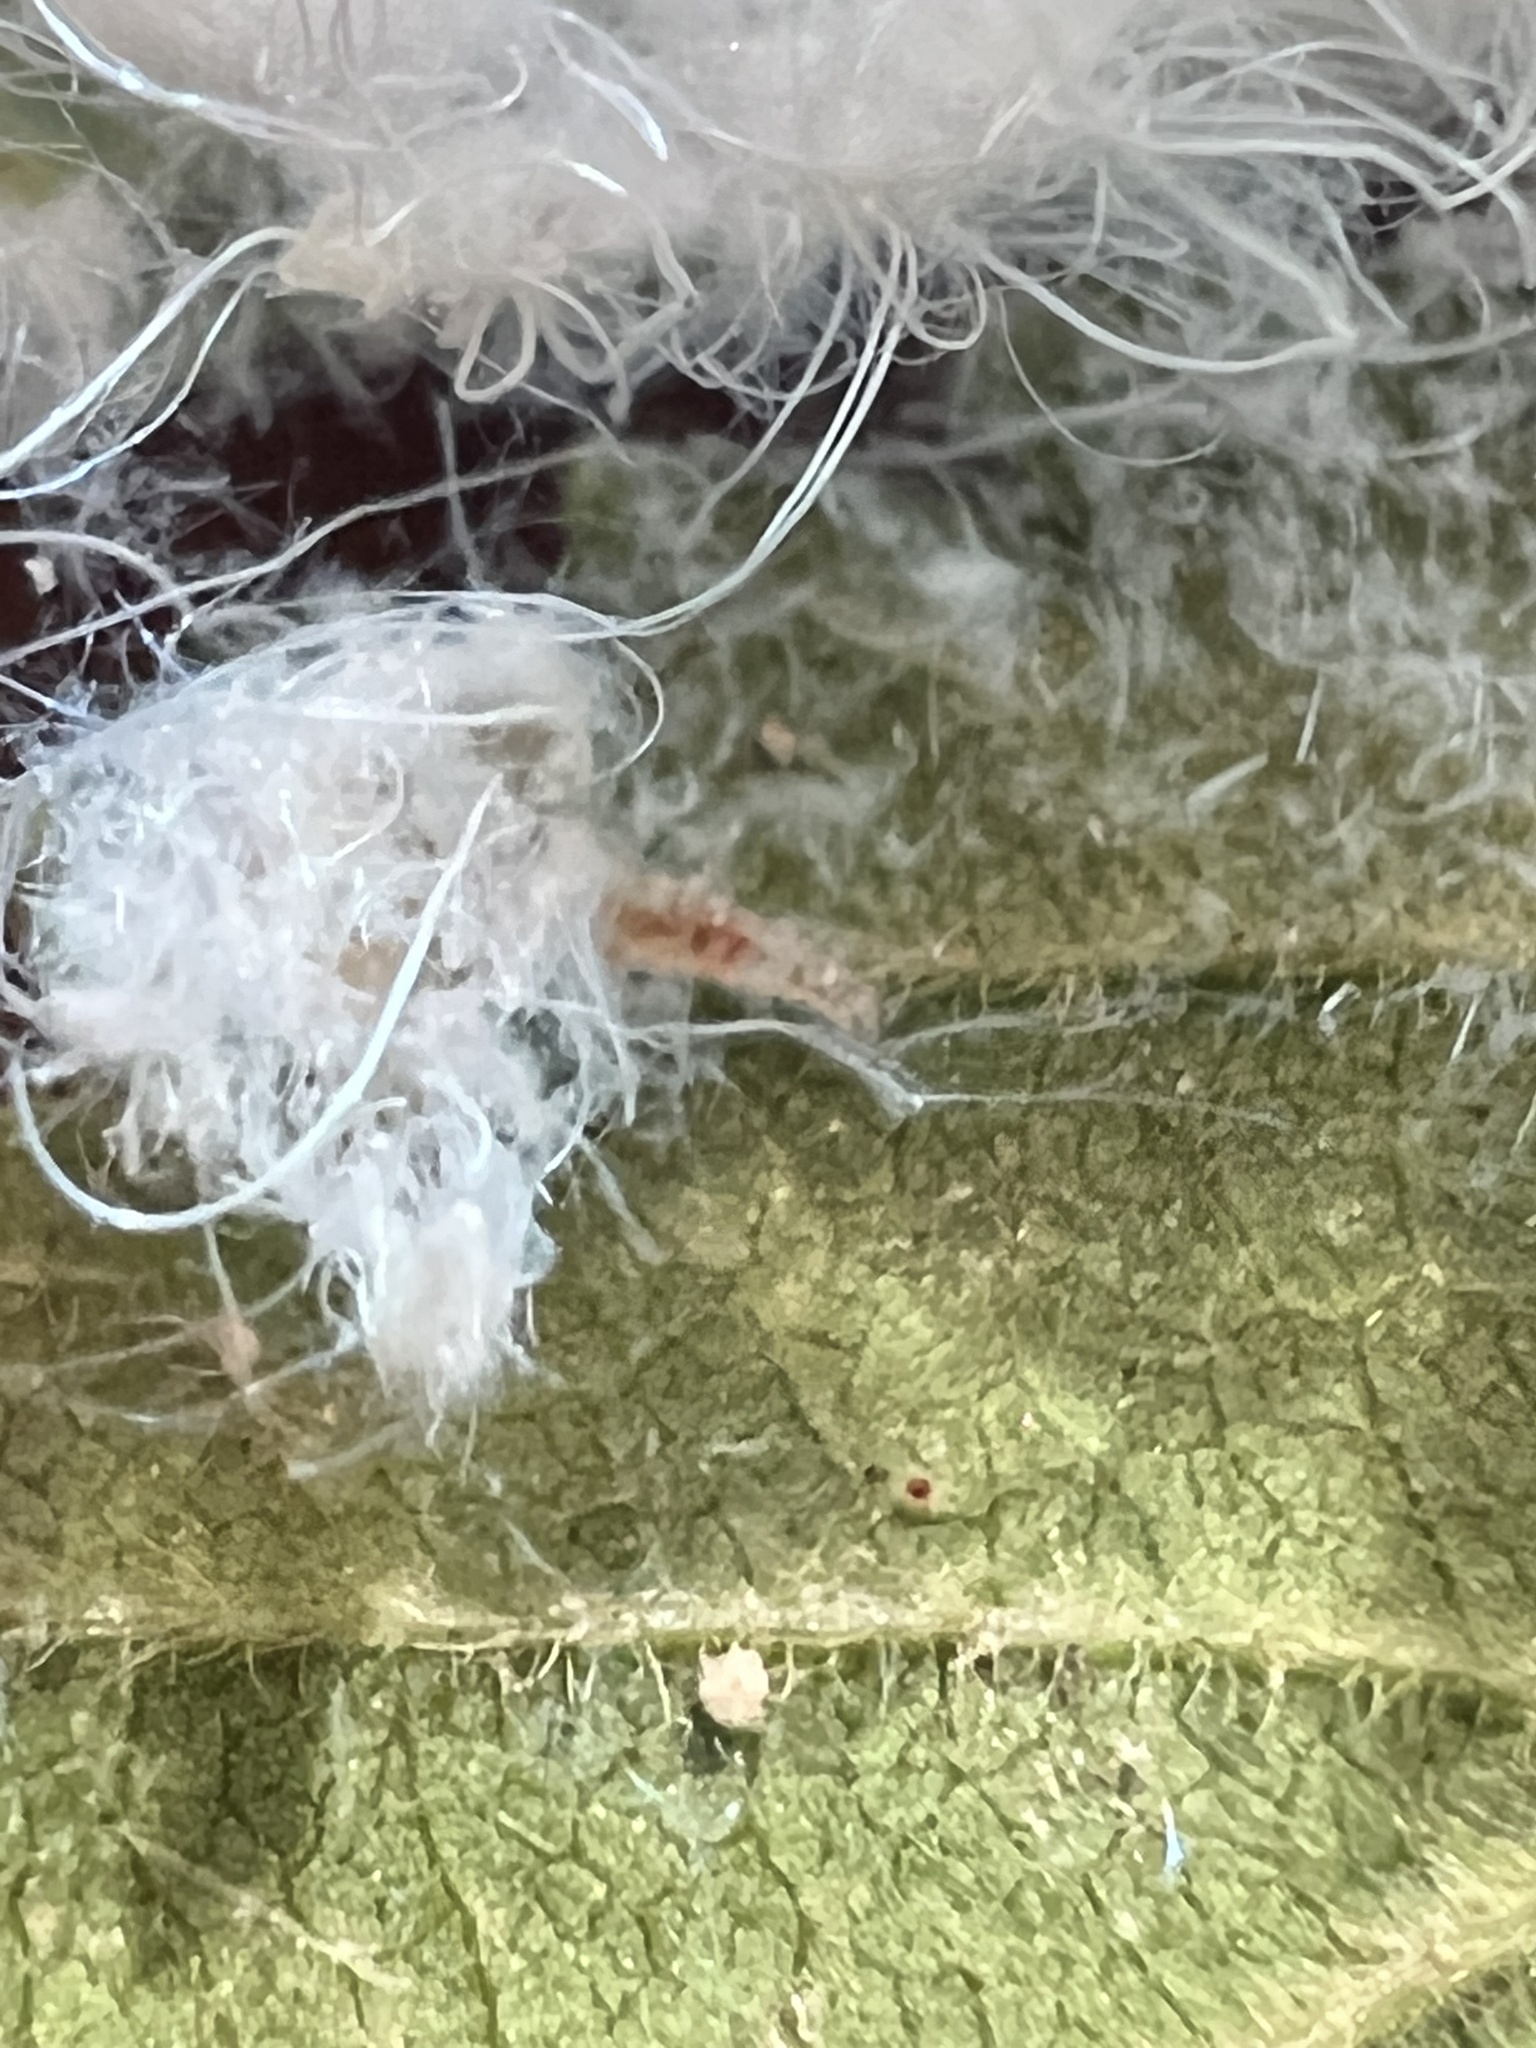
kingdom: Animalia
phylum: Arthropoda
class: Insecta
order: Hemiptera
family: Aphididae
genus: Grylloprociphilus
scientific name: Grylloprociphilus imbricator
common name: Beech blight aphid
